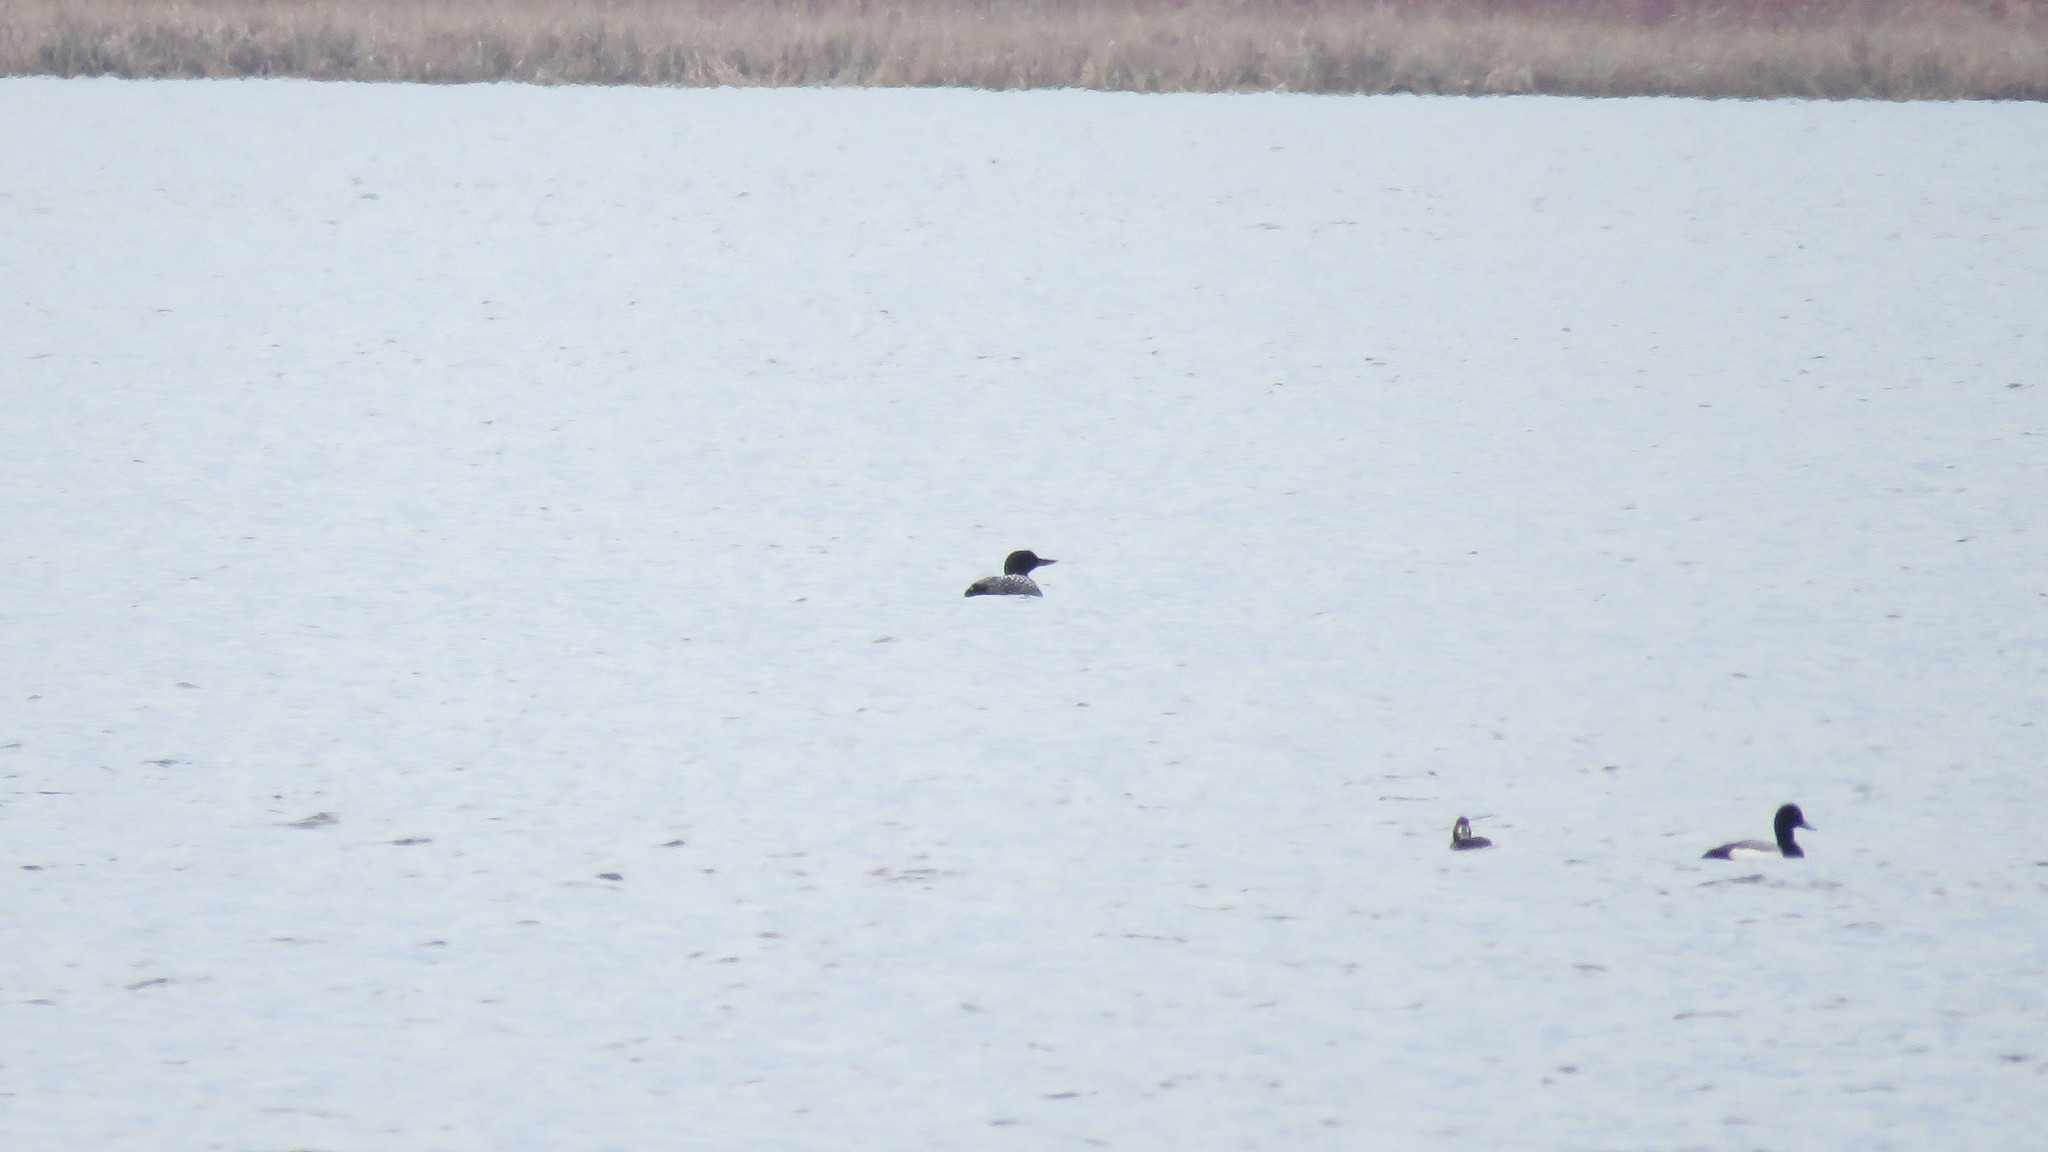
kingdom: Animalia
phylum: Chordata
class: Aves
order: Gaviiformes
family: Gaviidae
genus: Gavia
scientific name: Gavia immer
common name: Common loon
